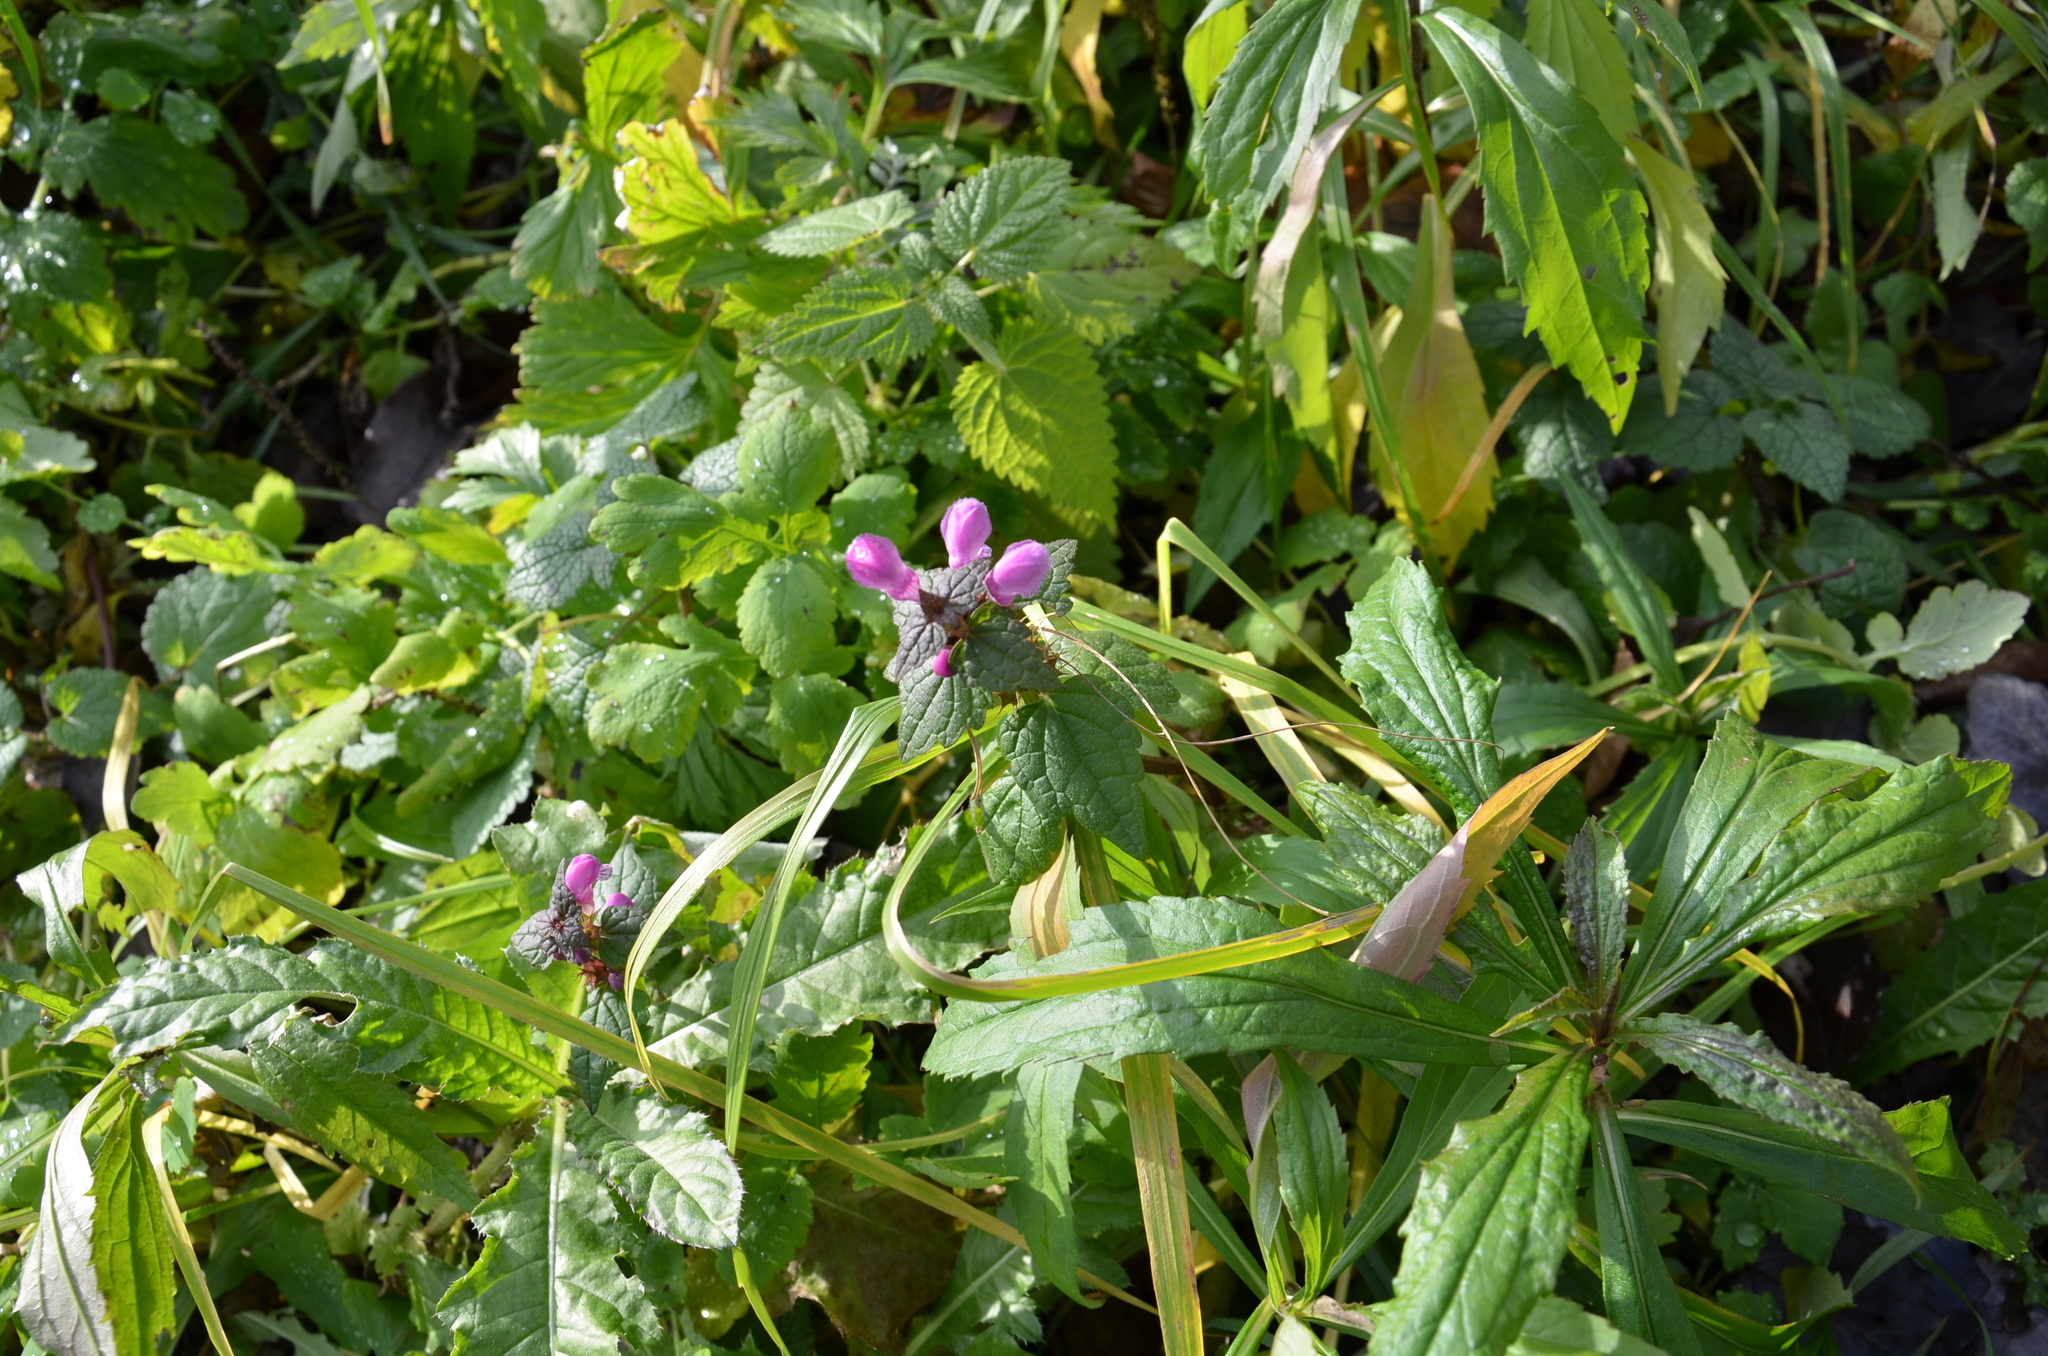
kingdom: Plantae
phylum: Tracheophyta
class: Magnoliopsida
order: Lamiales
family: Lamiaceae
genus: Lamium
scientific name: Lamium maculatum
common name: Spotted dead-nettle
